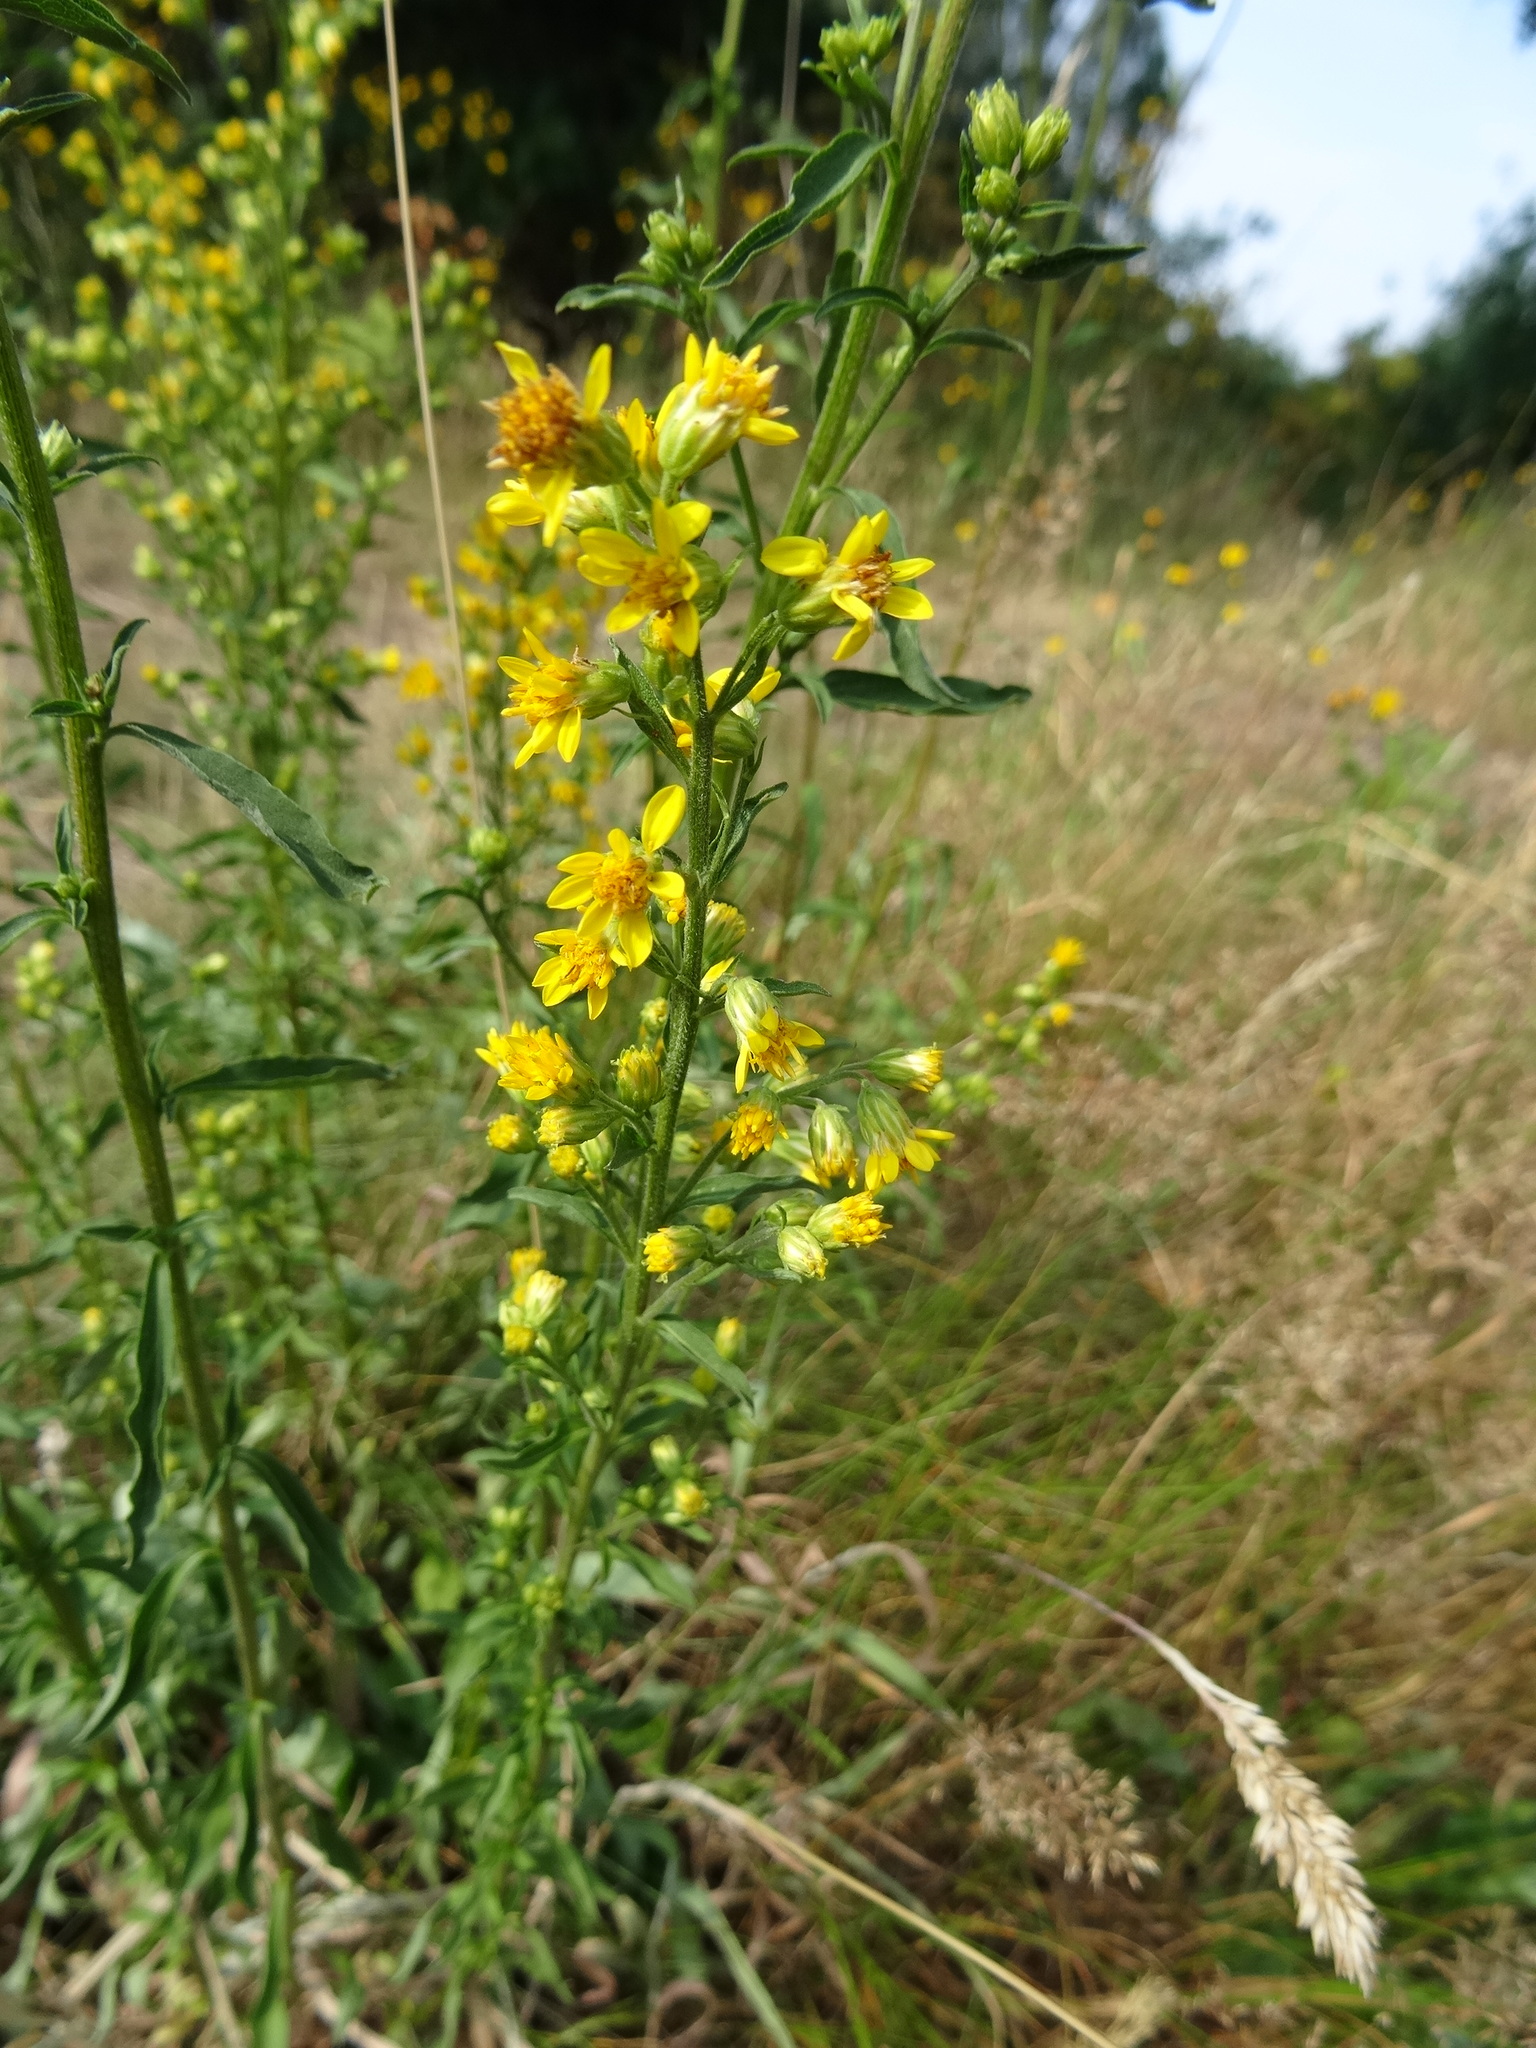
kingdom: Plantae
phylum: Tracheophyta
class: Magnoliopsida
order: Asterales
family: Asteraceae
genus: Solidago
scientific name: Solidago virgaurea
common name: Goldenrod
